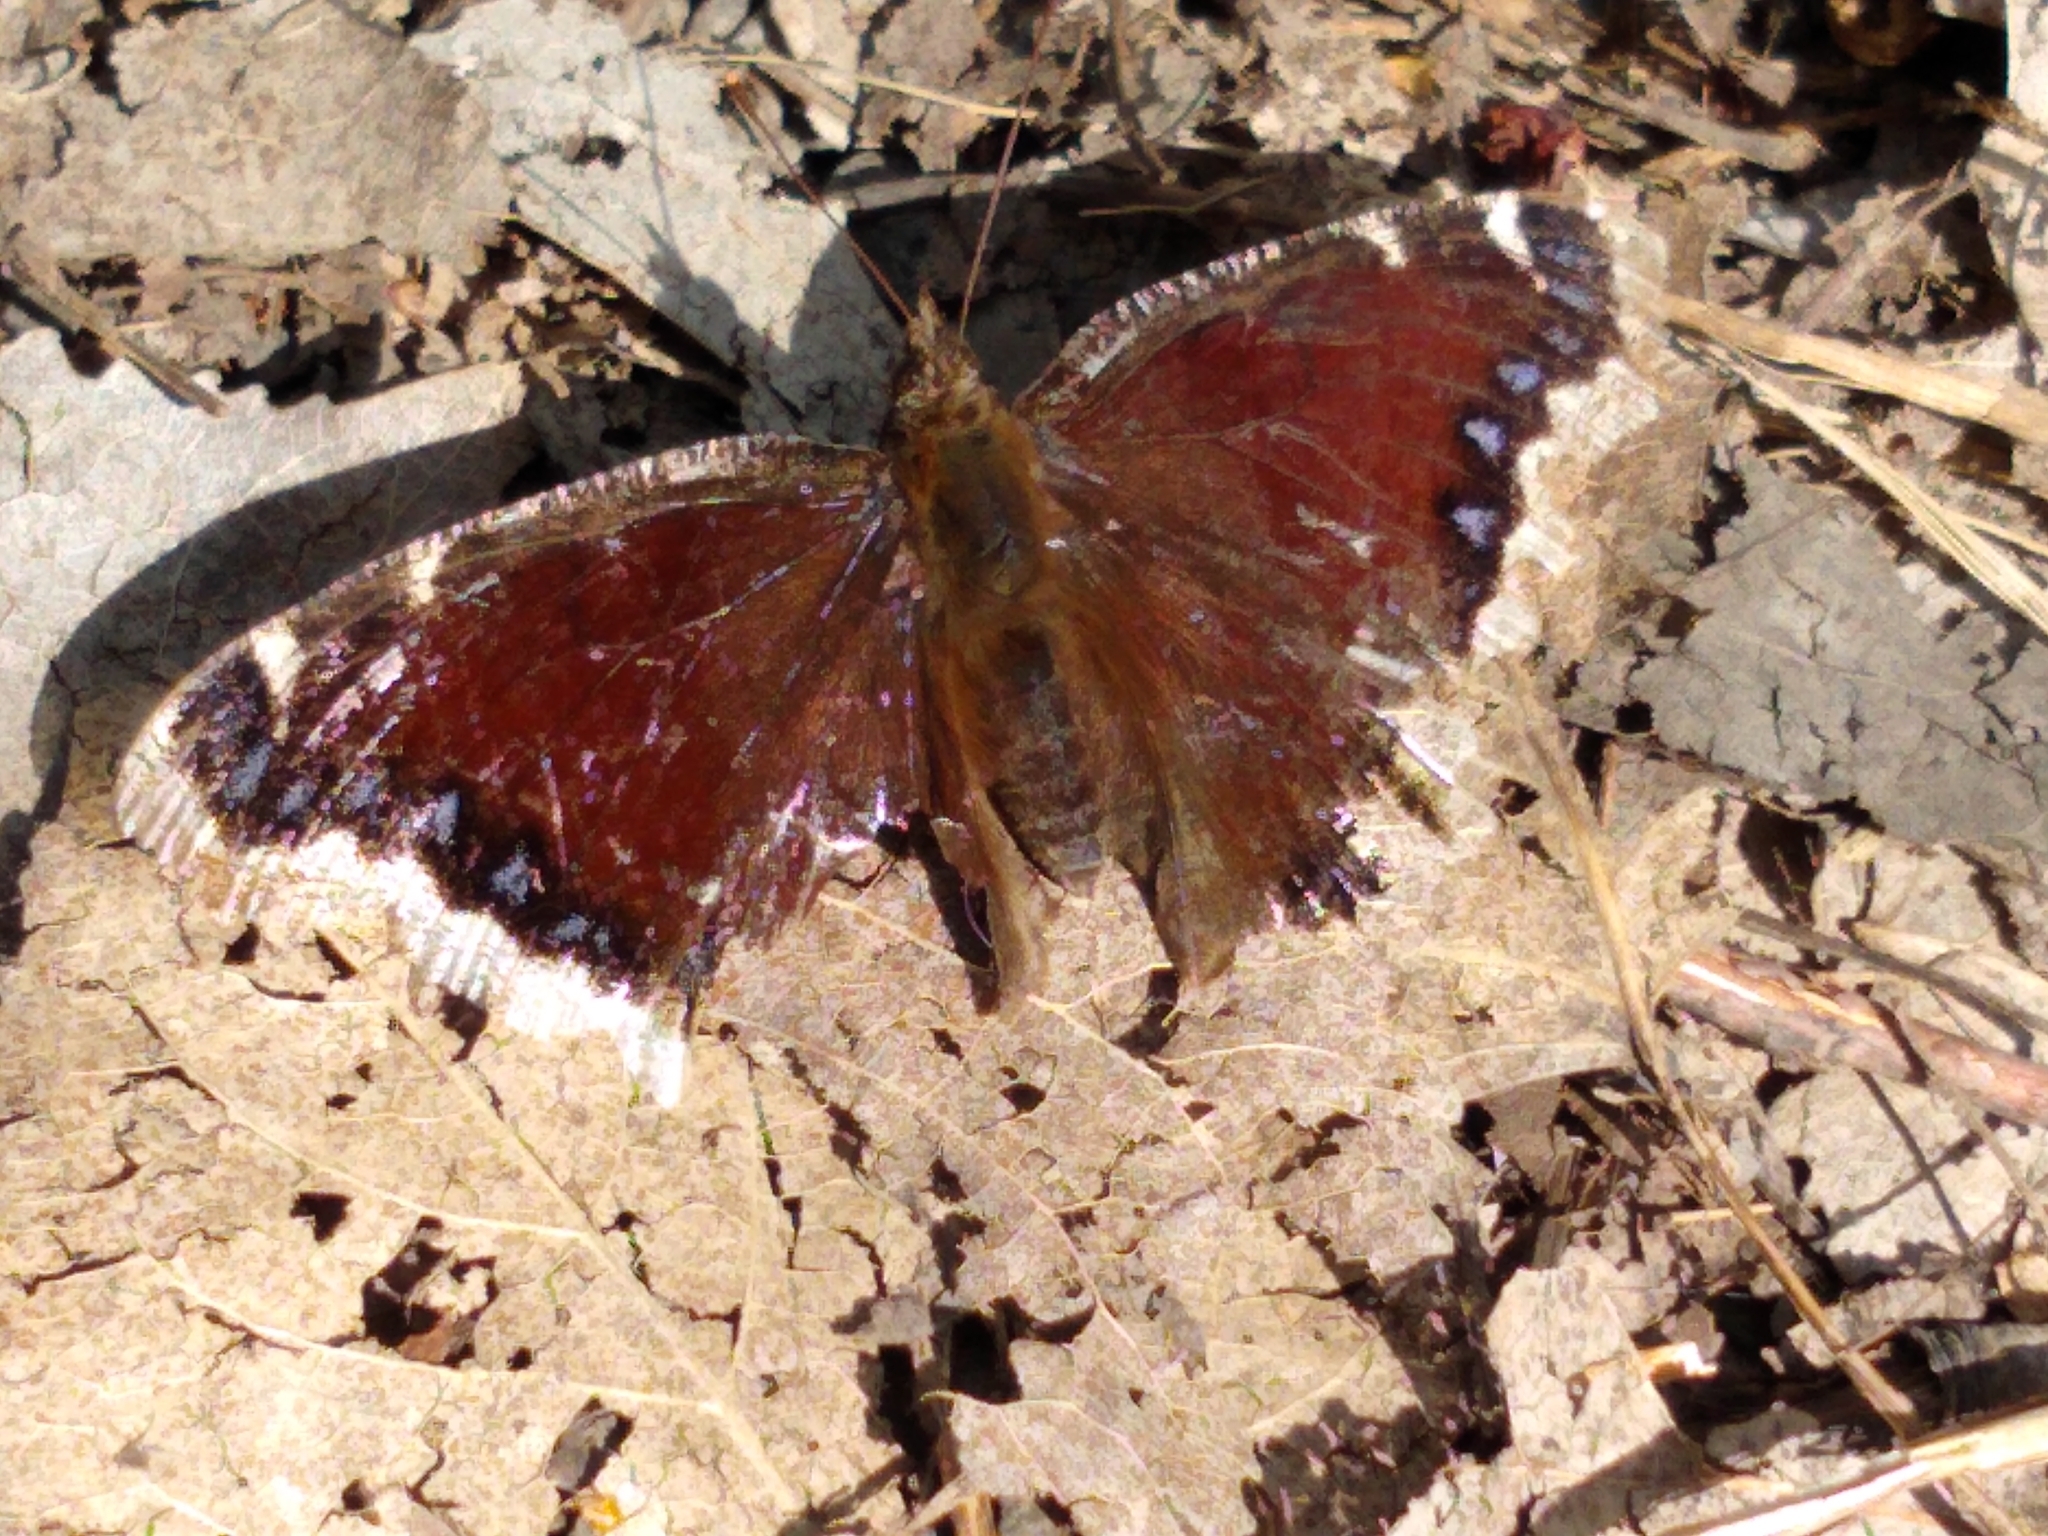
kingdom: Animalia
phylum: Arthropoda
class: Insecta
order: Lepidoptera
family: Nymphalidae
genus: Nymphalis
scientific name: Nymphalis antiopa
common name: Camberwell beauty
